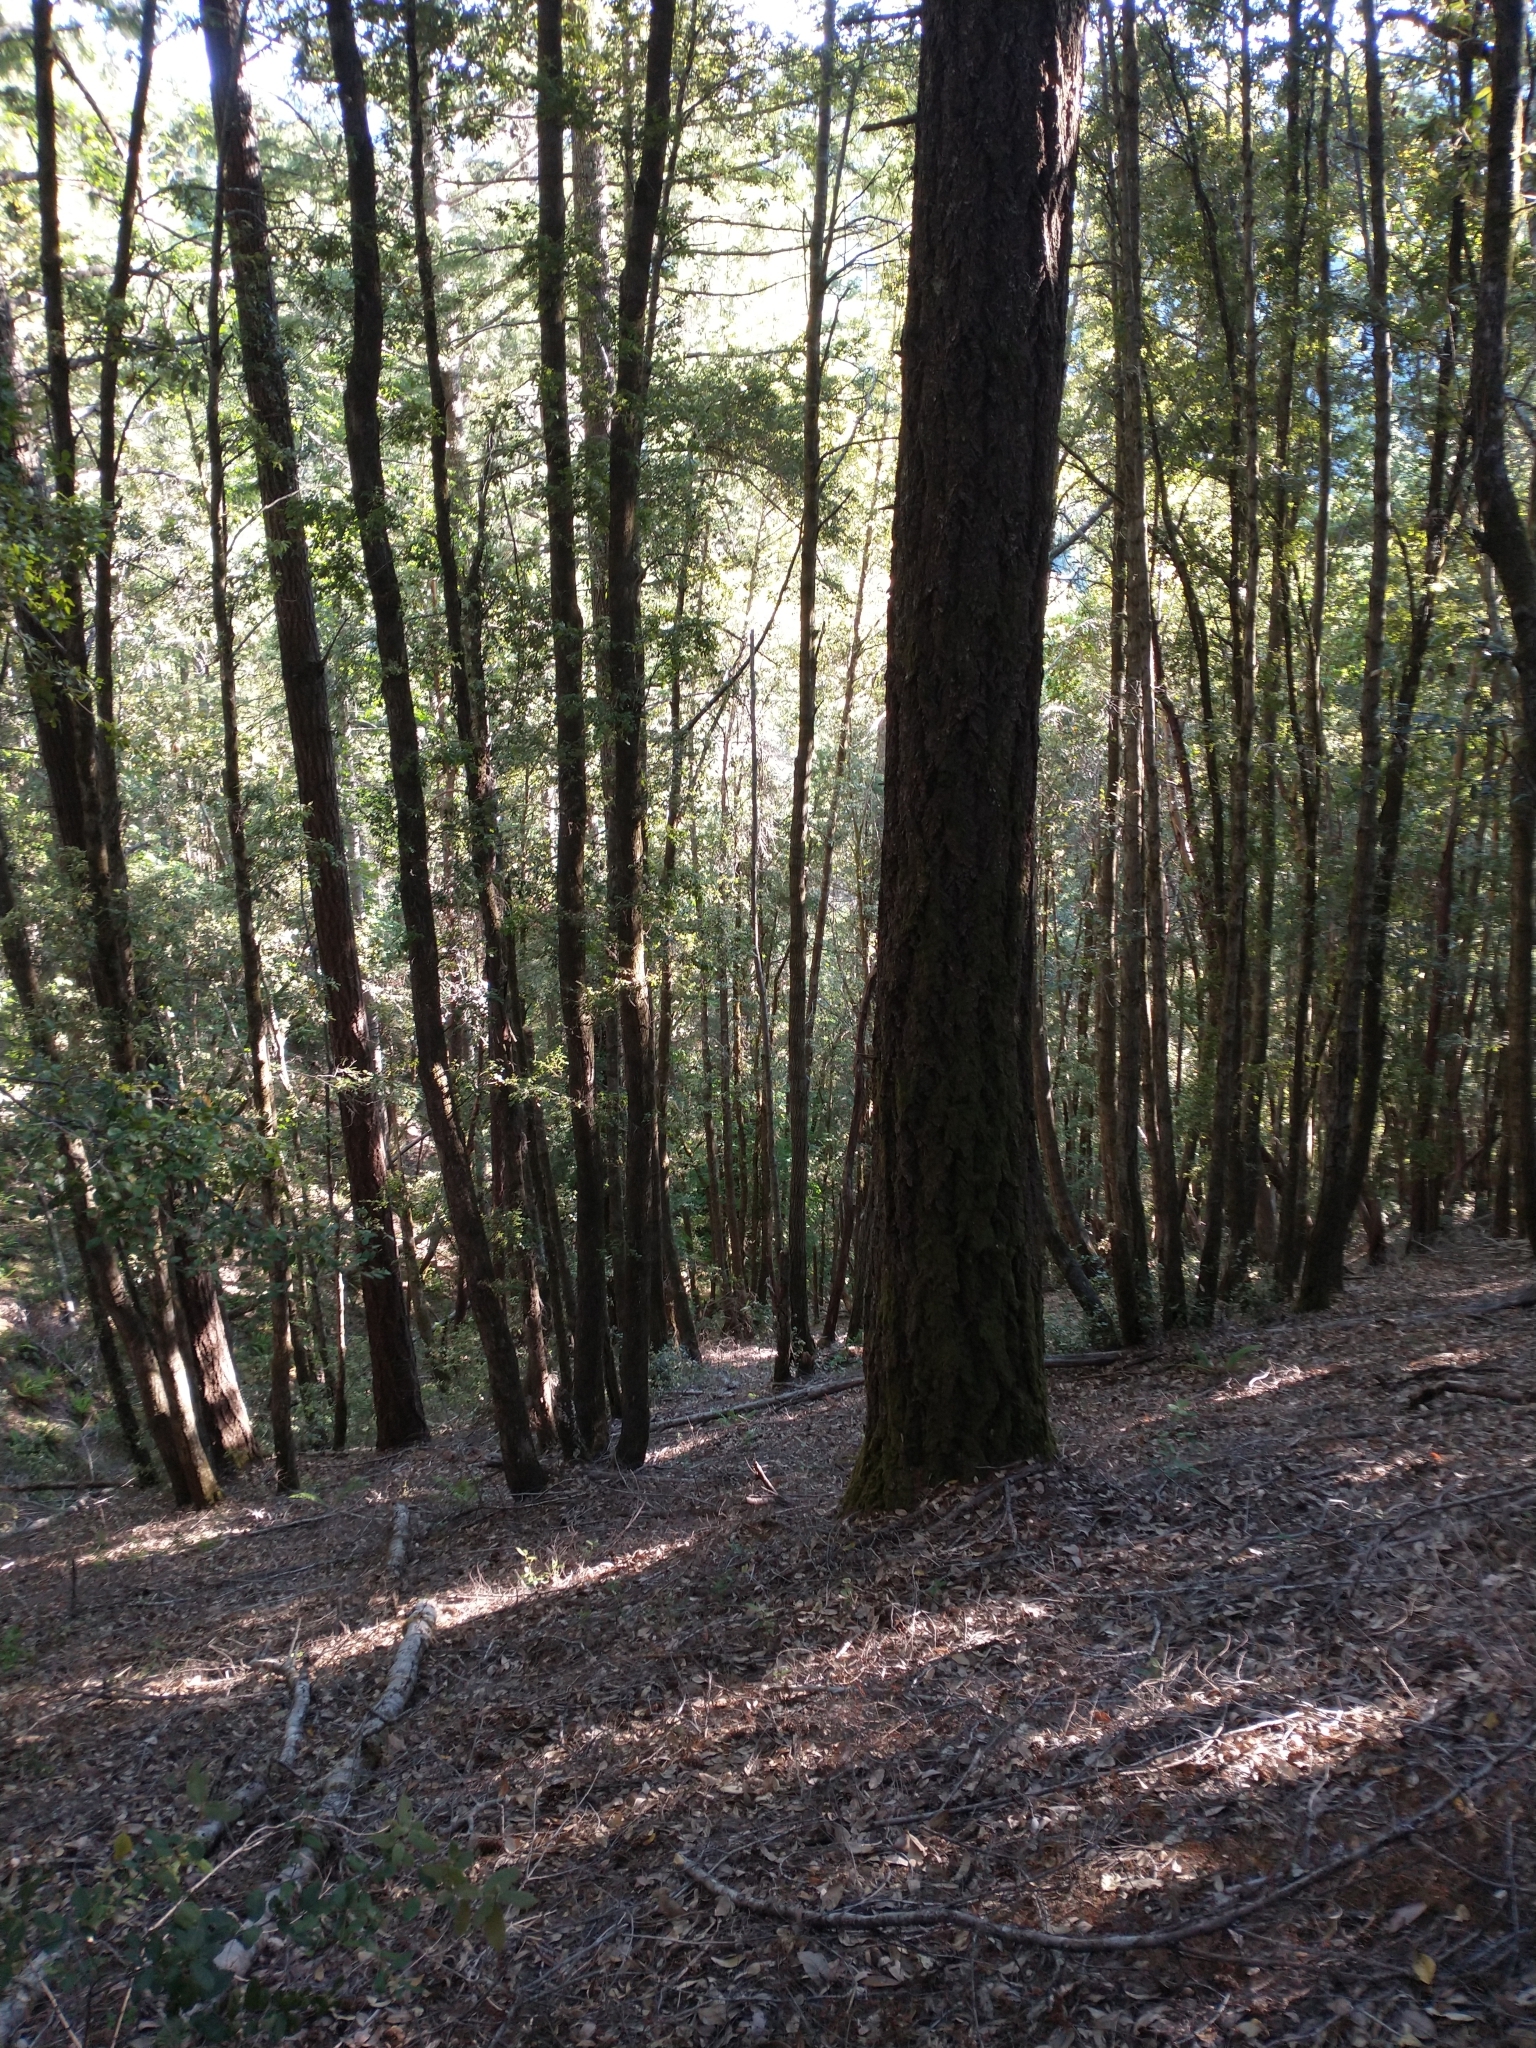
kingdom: Plantae
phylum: Tracheophyta
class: Pinopsida
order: Pinales
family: Pinaceae
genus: Pseudotsuga
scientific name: Pseudotsuga menziesii
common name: Douglas fir
